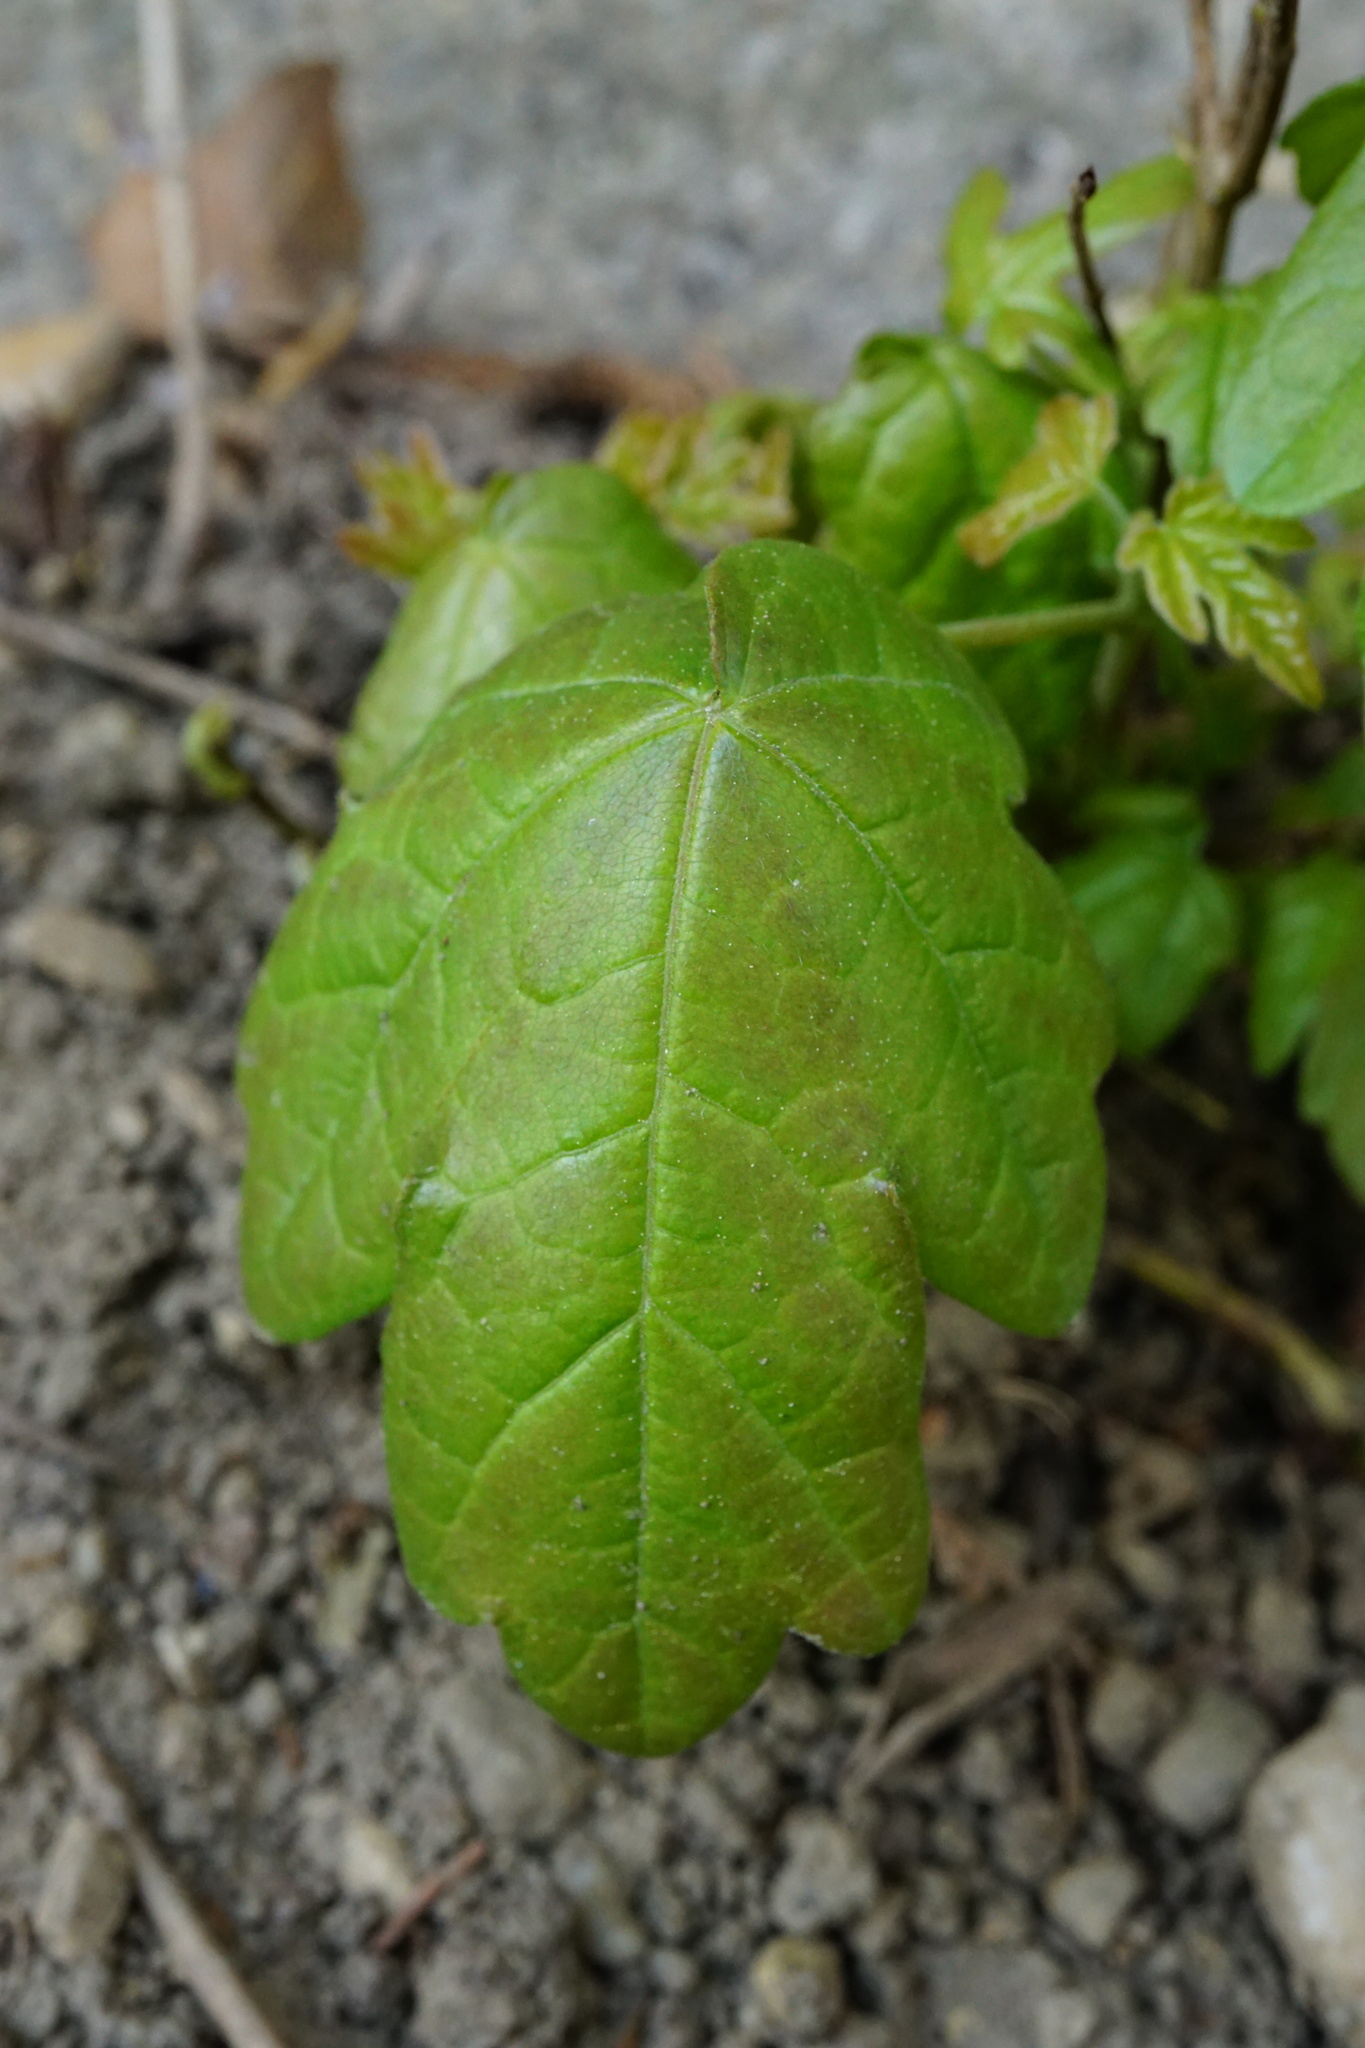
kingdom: Plantae
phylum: Tracheophyta
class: Magnoliopsida
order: Sapindales
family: Sapindaceae
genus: Acer
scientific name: Acer campestre
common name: Field maple
